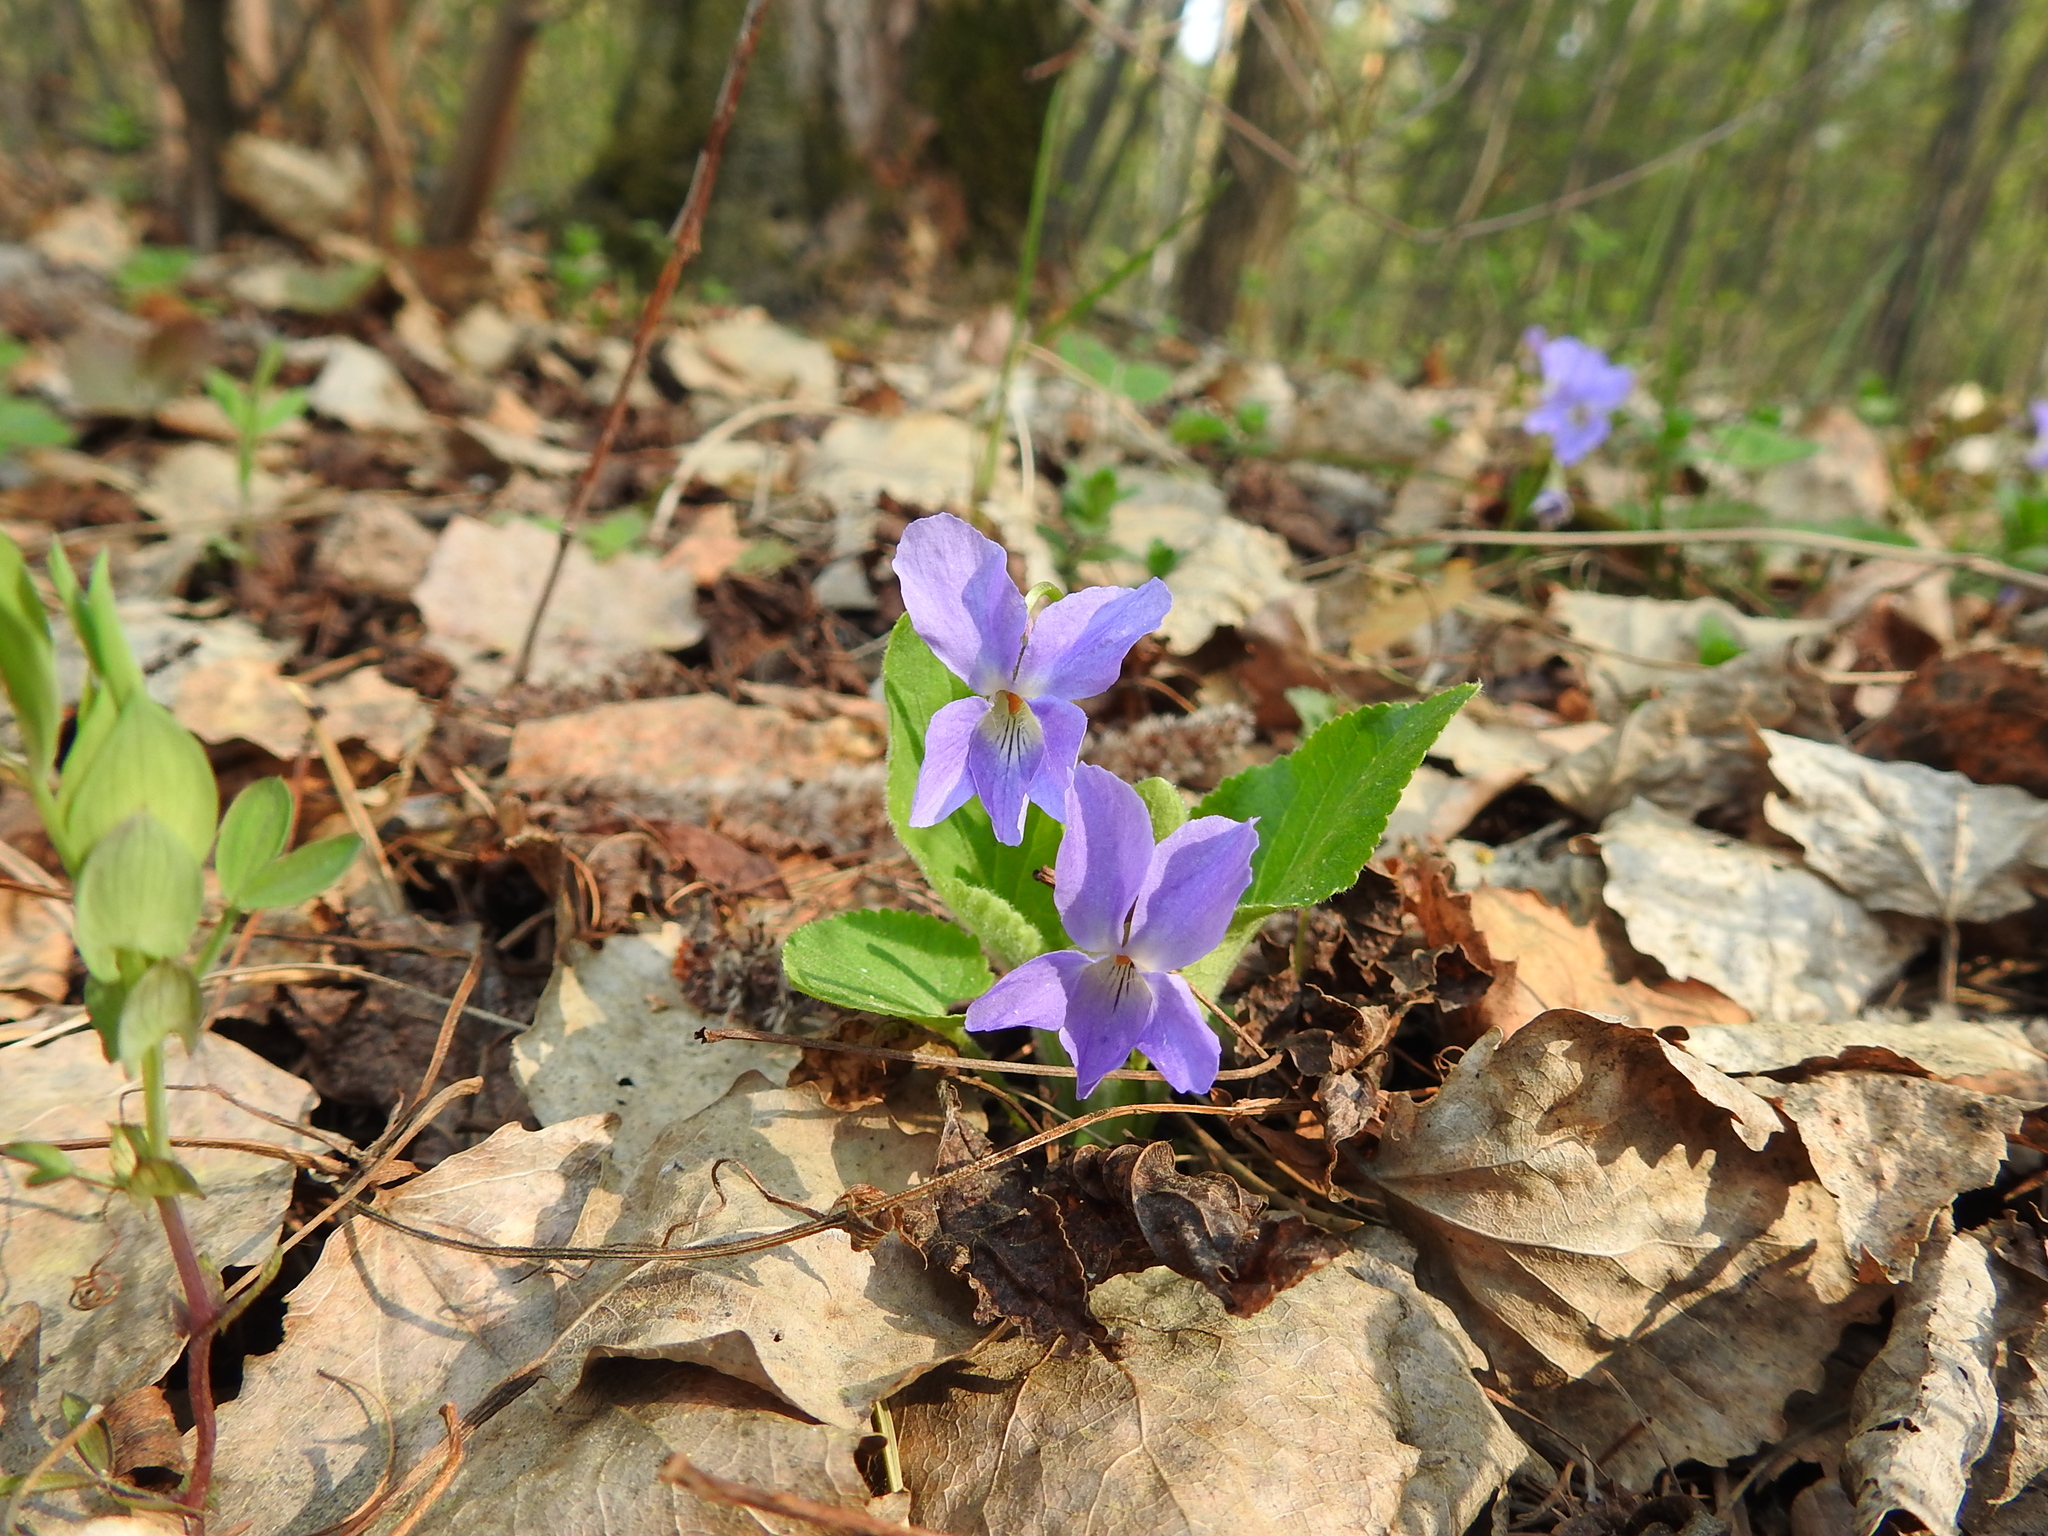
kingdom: Plantae
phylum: Tracheophyta
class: Magnoliopsida
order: Malpighiales
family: Violaceae
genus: Viola
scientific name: Viola hirta
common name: Hairy violet
